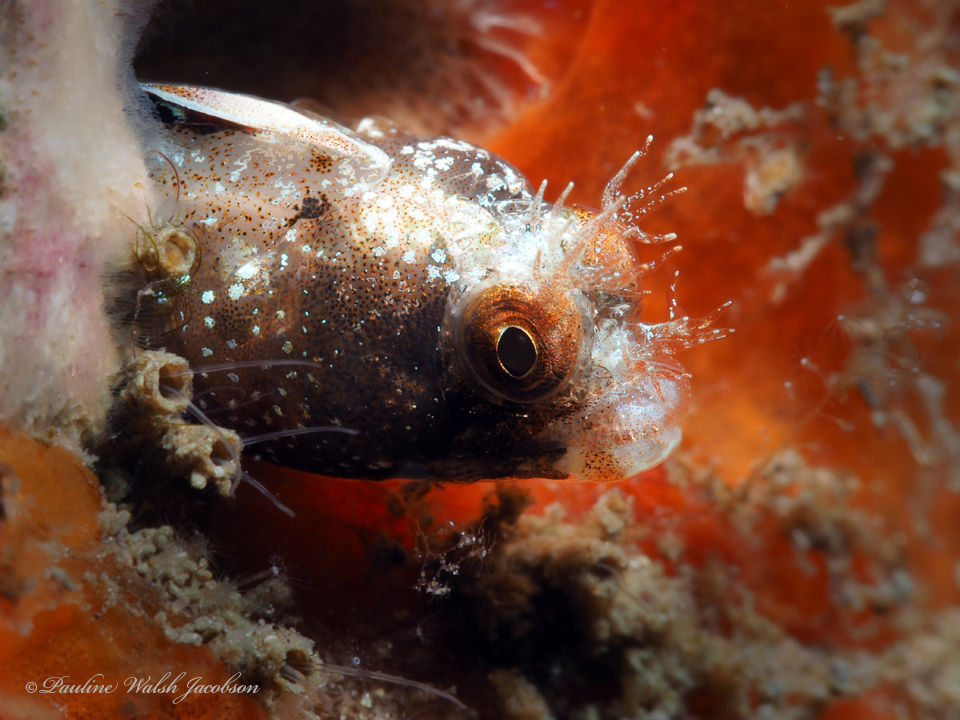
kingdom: Animalia
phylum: Chordata
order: Perciformes
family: Chaenopsidae
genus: Acanthemblemaria
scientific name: Acanthemblemaria aspera
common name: Roughhead blenny
